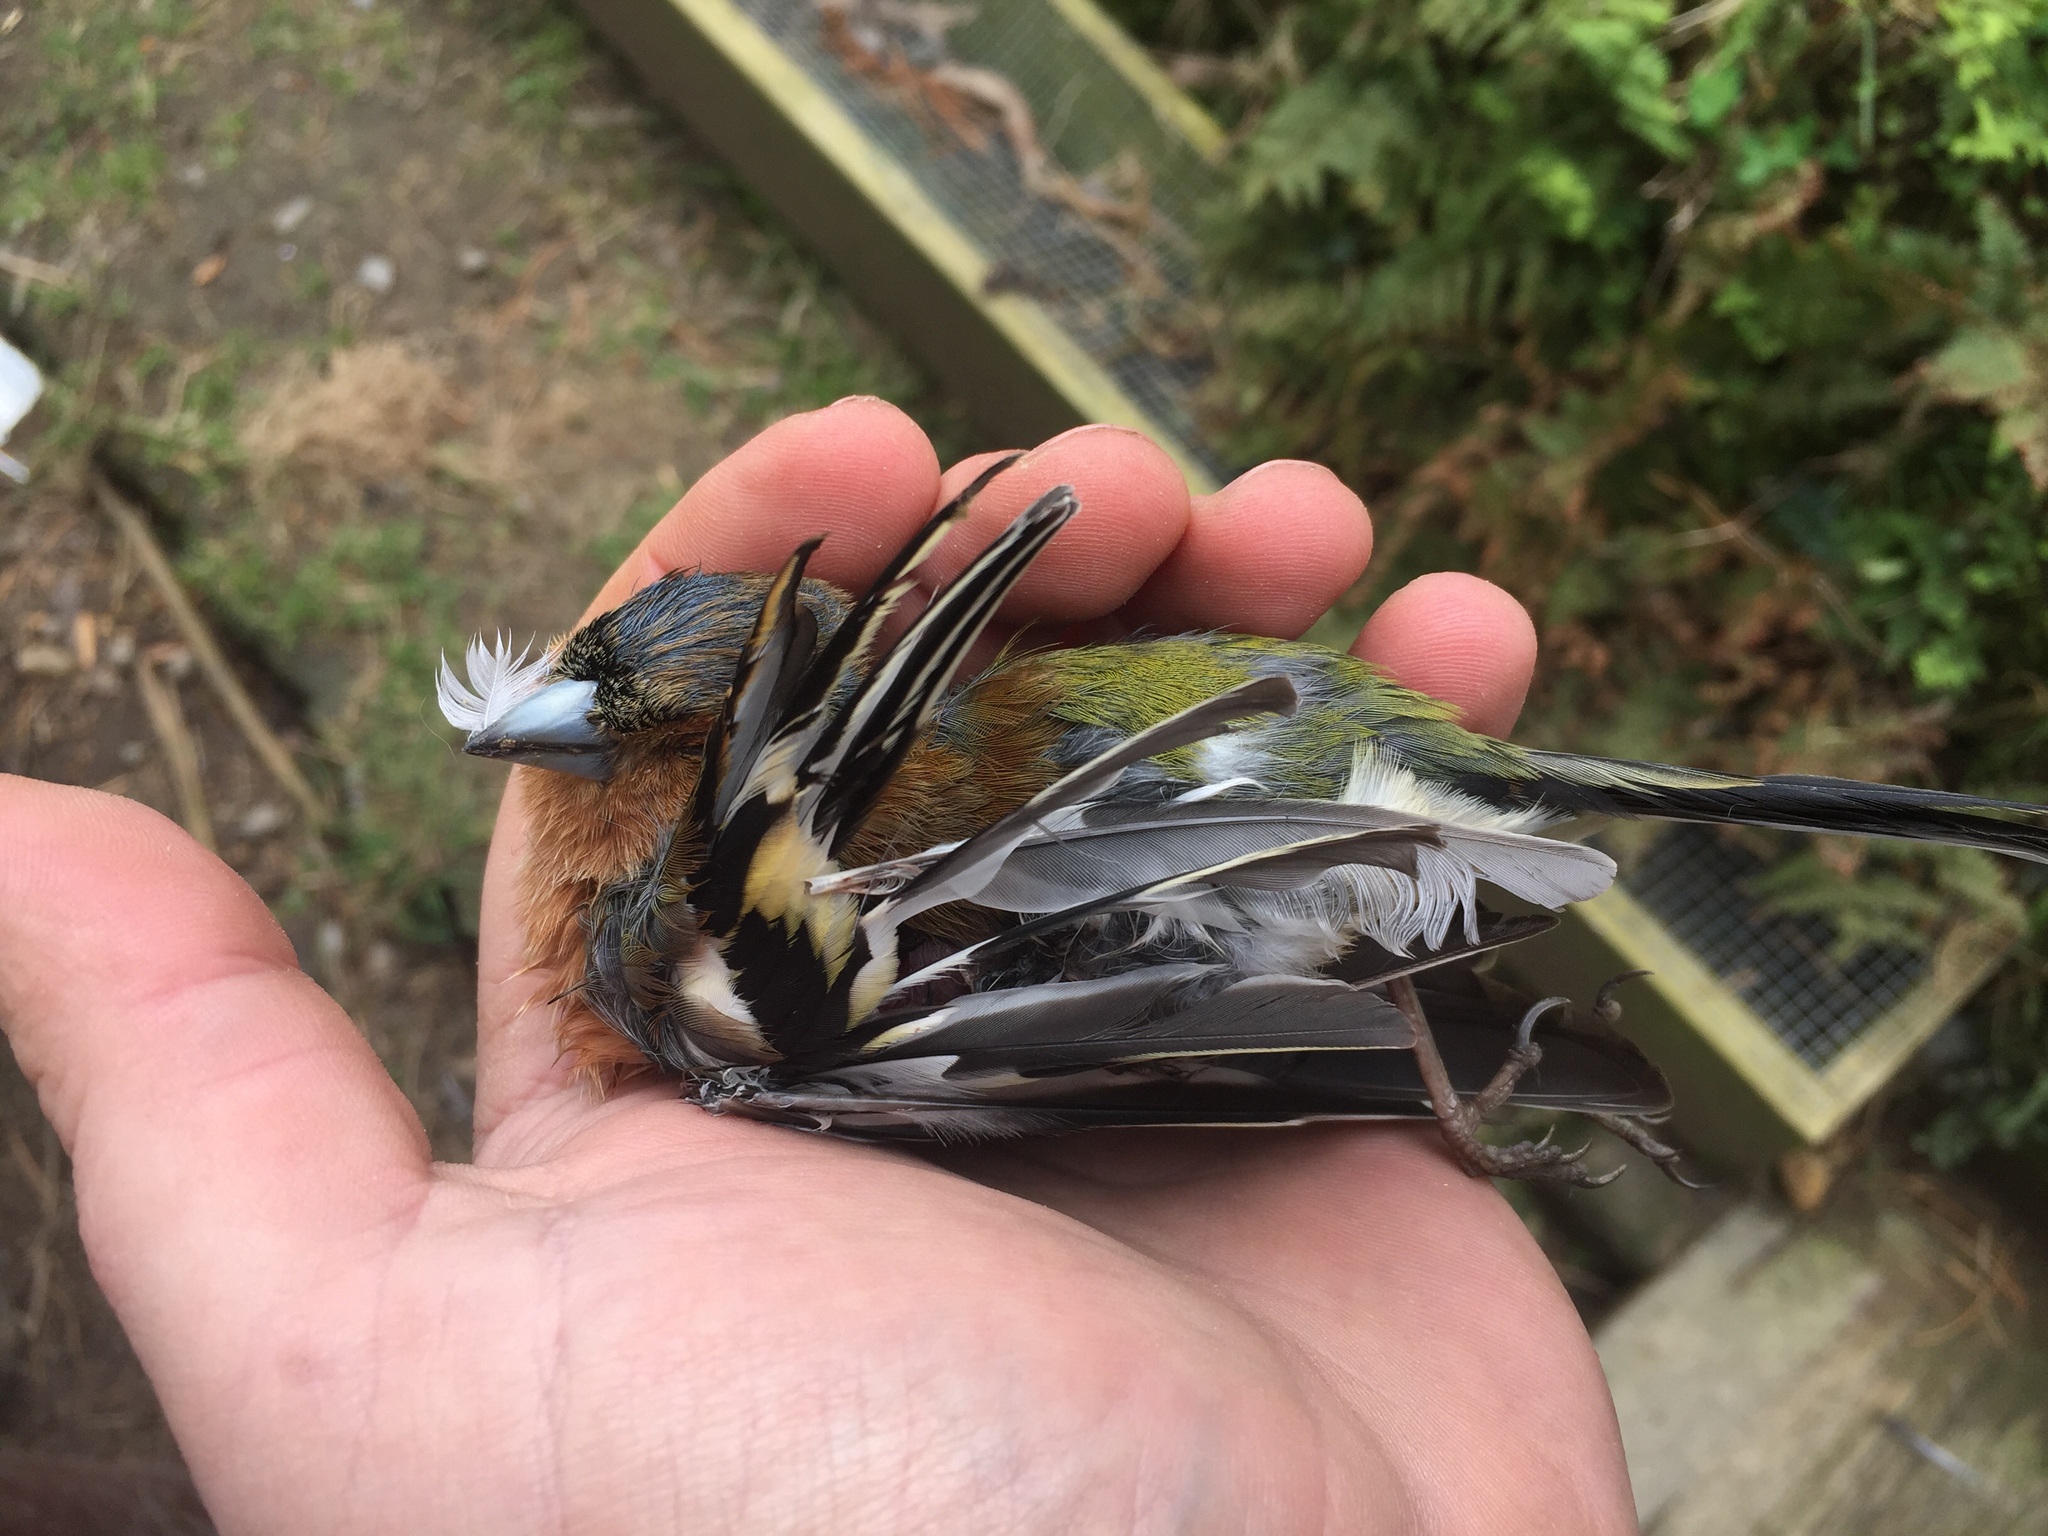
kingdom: Animalia
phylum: Chordata
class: Aves
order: Passeriformes
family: Fringillidae
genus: Fringilla
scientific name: Fringilla coelebs
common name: Common chaffinch
